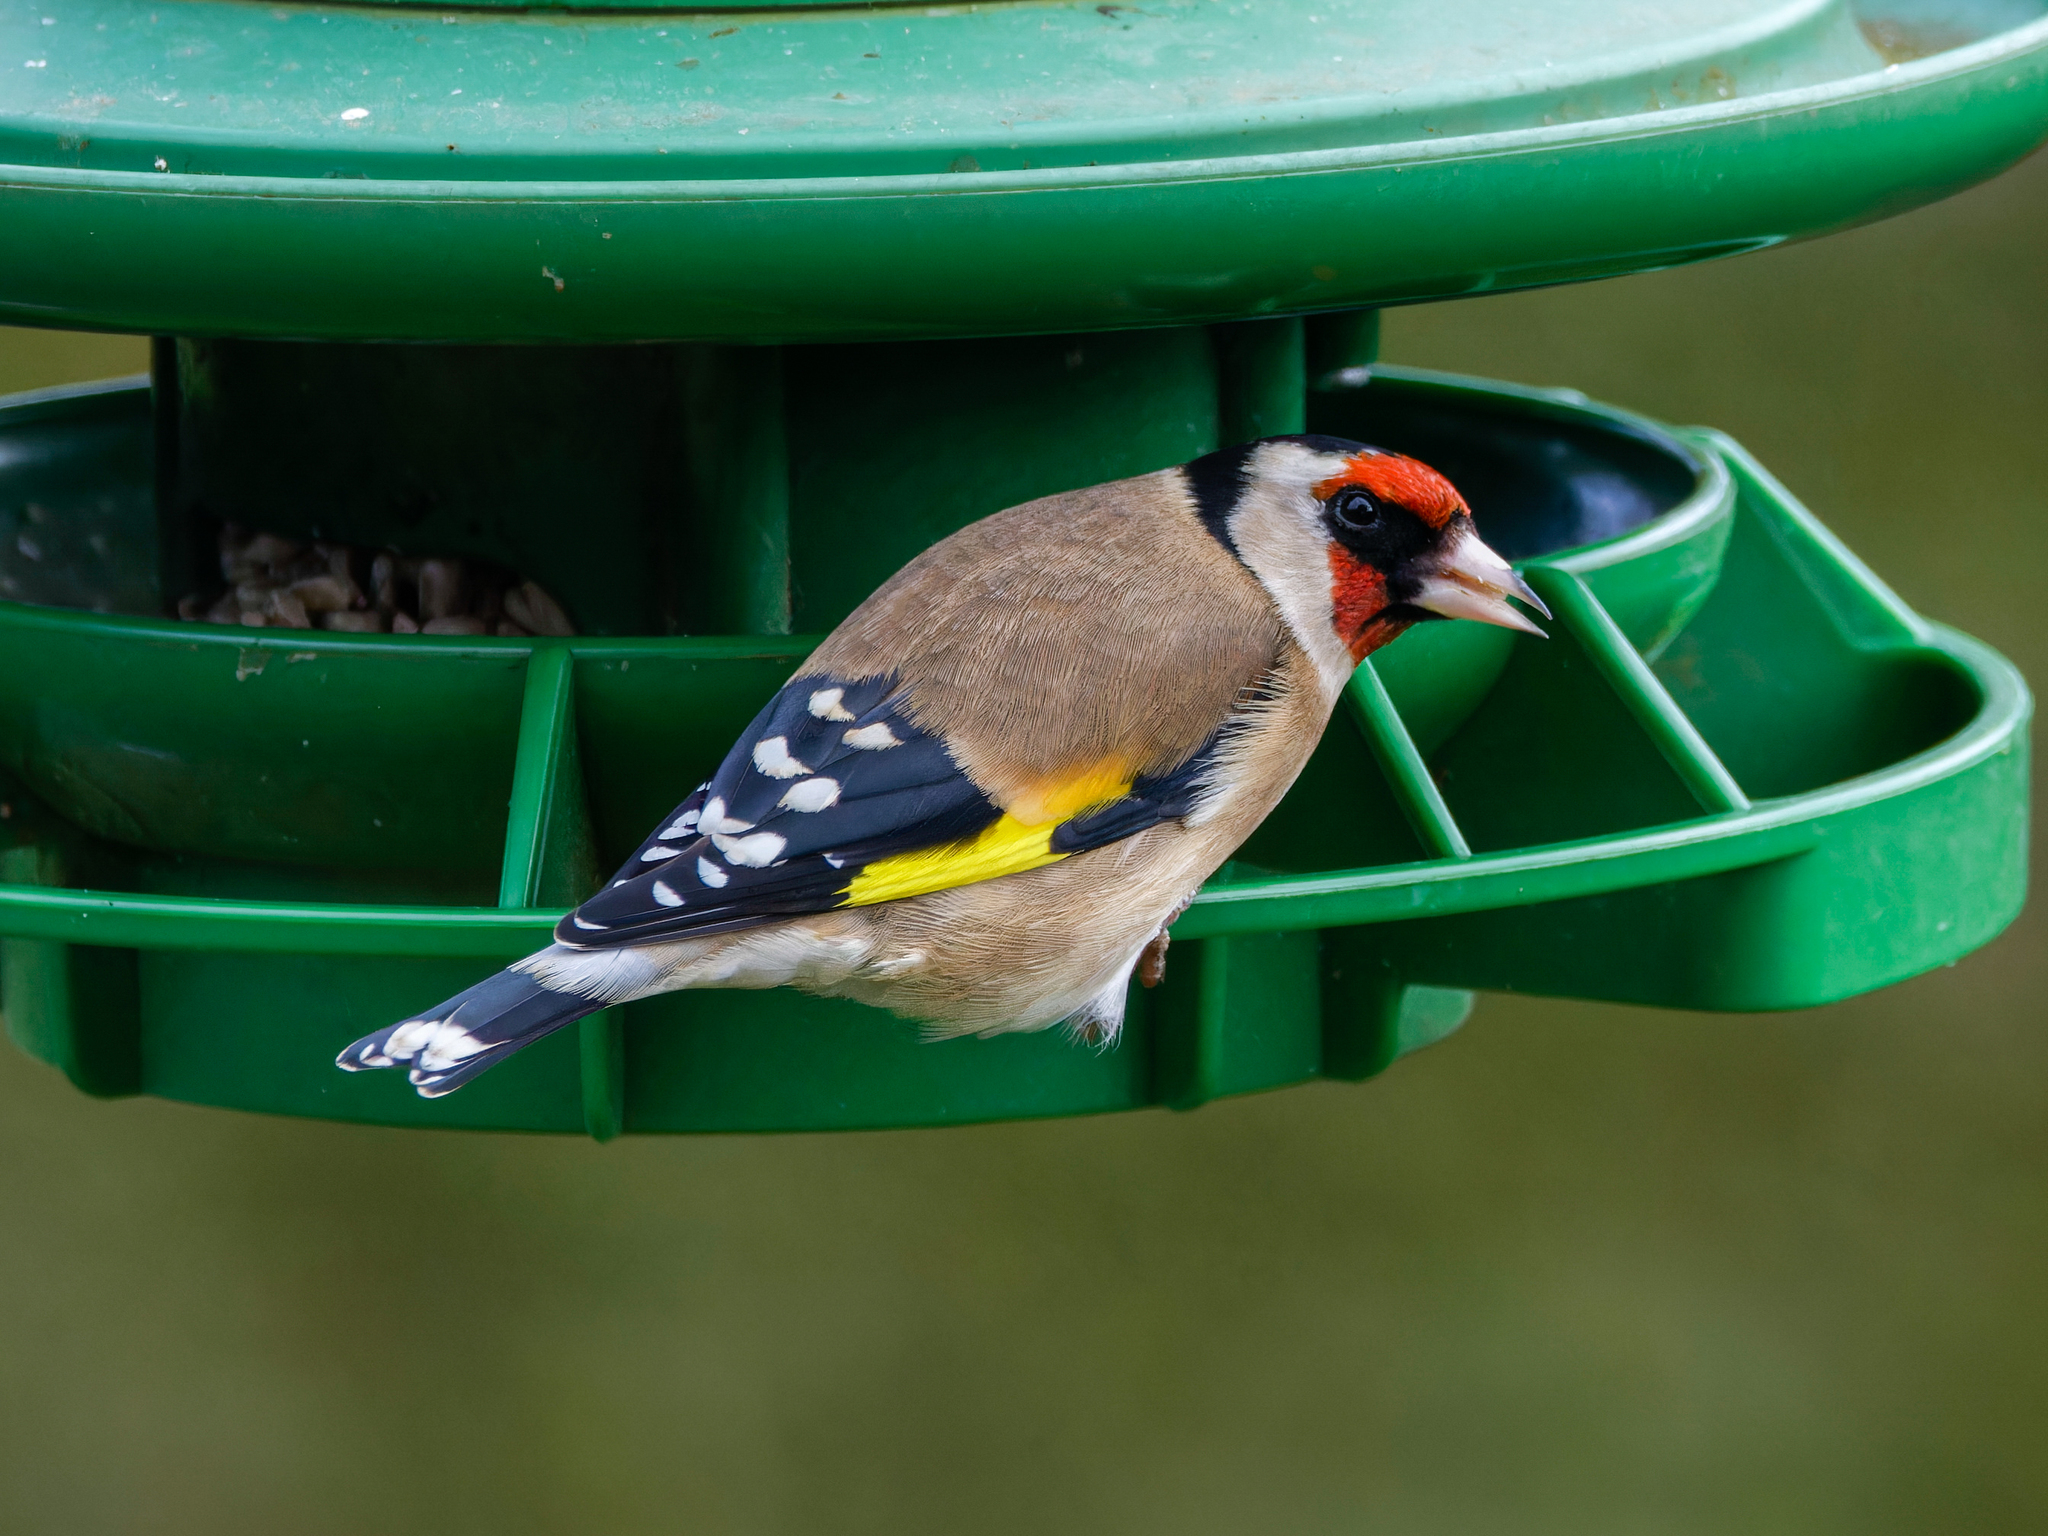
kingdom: Animalia
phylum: Chordata
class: Aves
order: Passeriformes
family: Fringillidae
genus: Carduelis
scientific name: Carduelis carduelis
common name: European goldfinch
